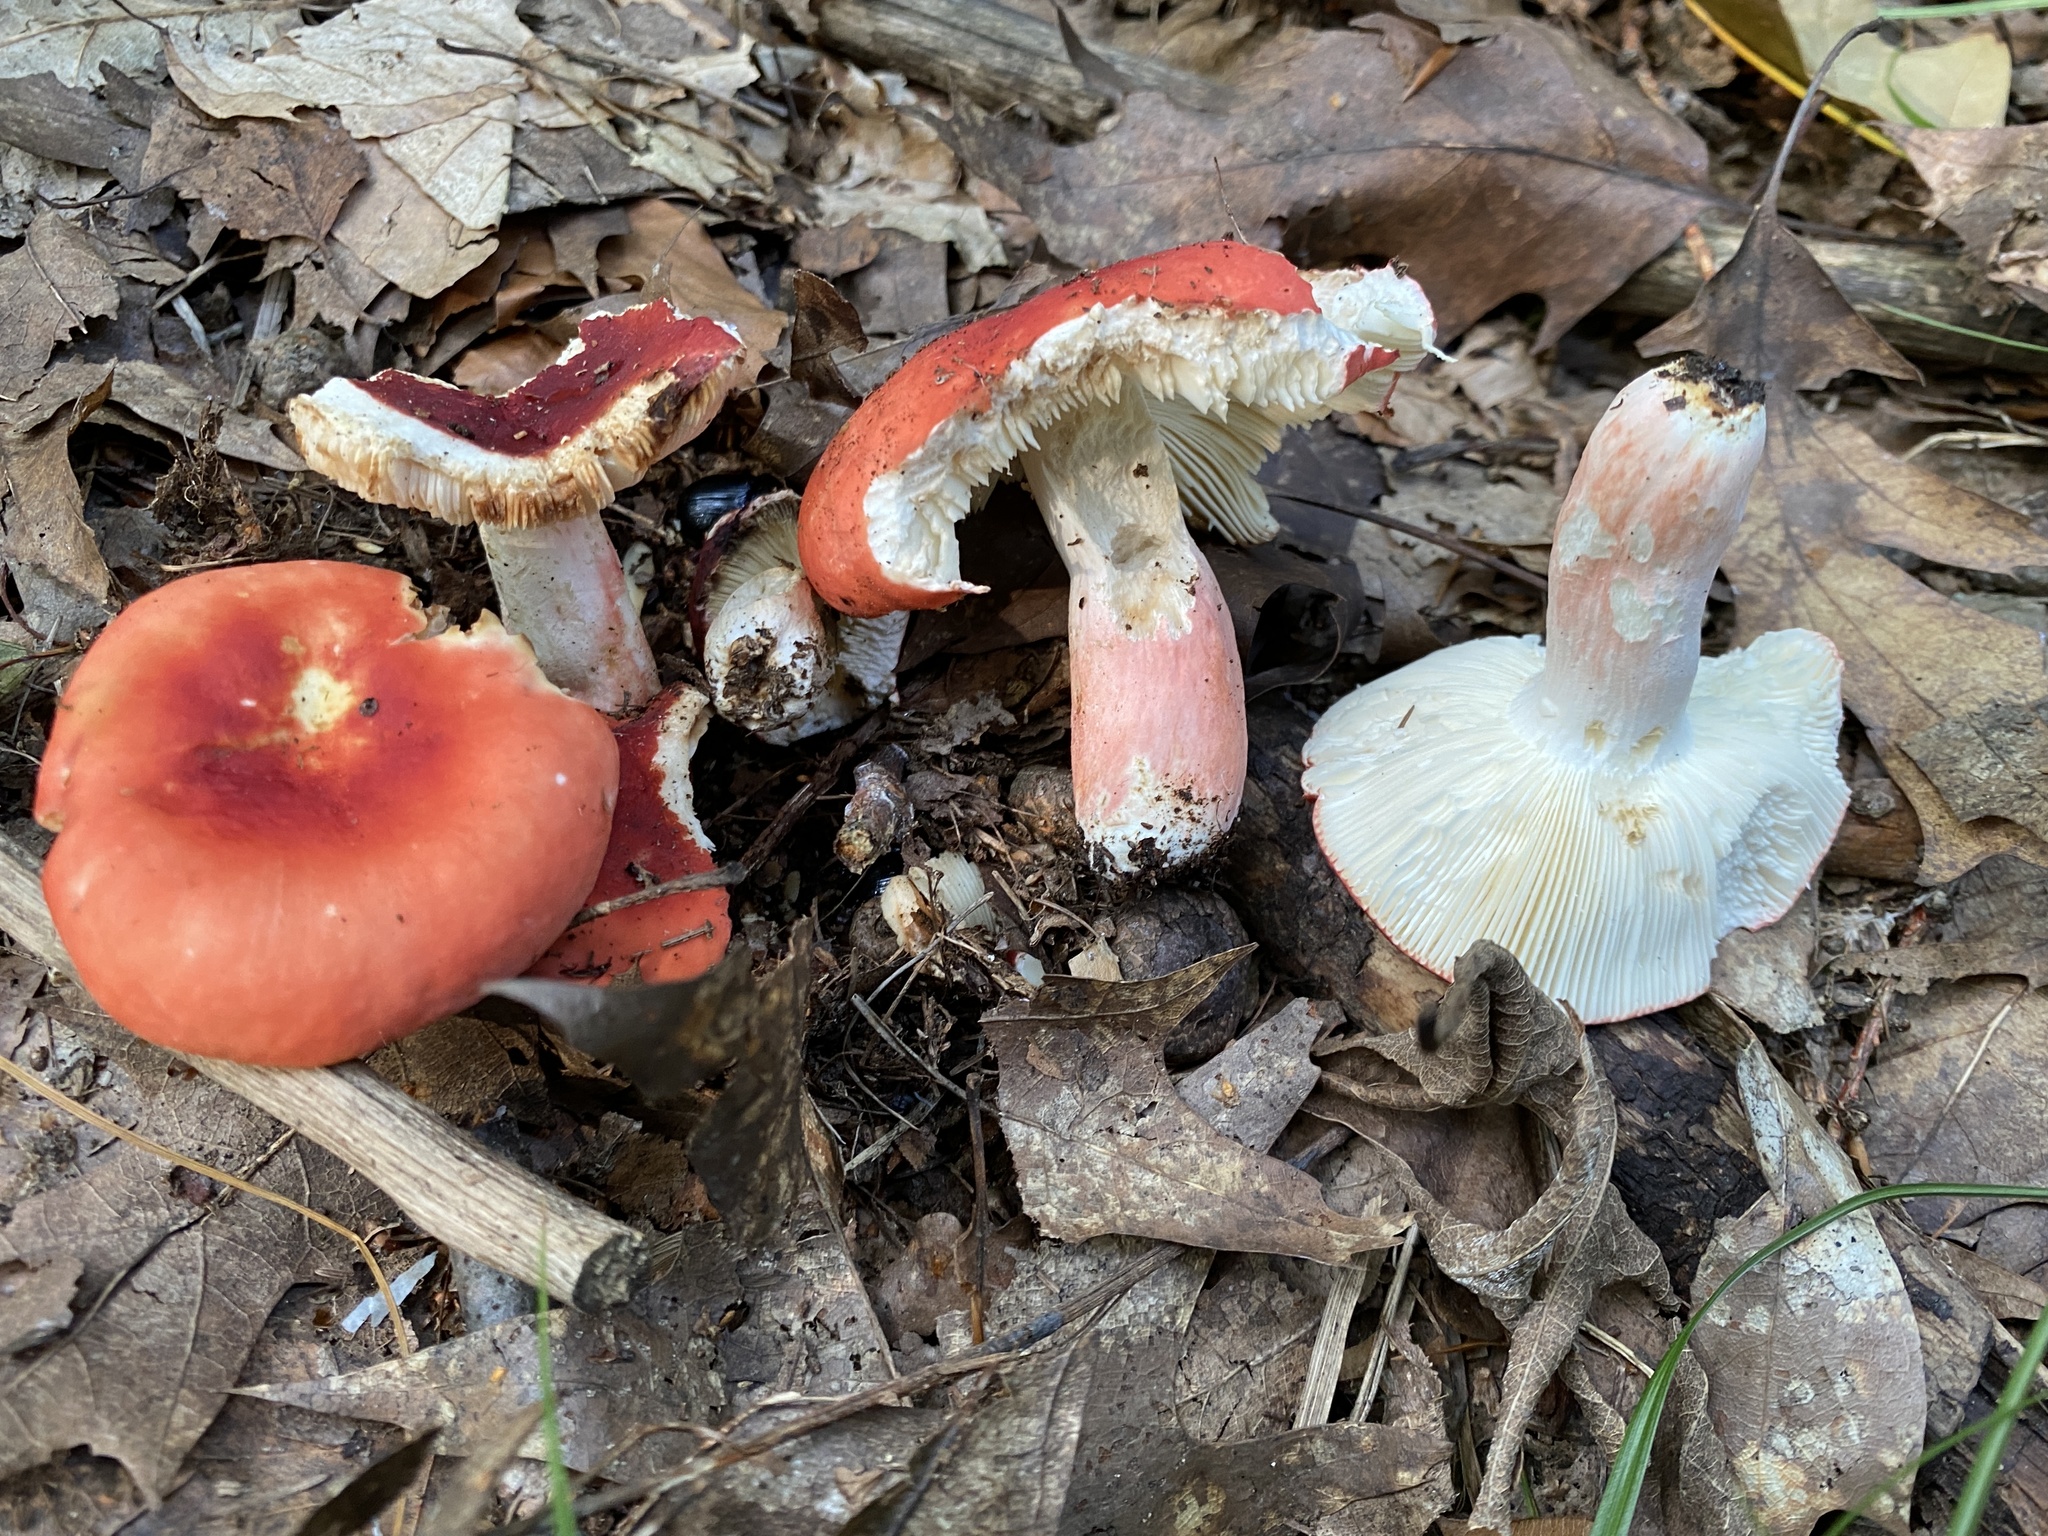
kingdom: Fungi
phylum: Basidiomycota
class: Agaricomycetes
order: Russulales
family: Russulaceae
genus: Russula
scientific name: Russula rosea
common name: Rosy brittlegill
